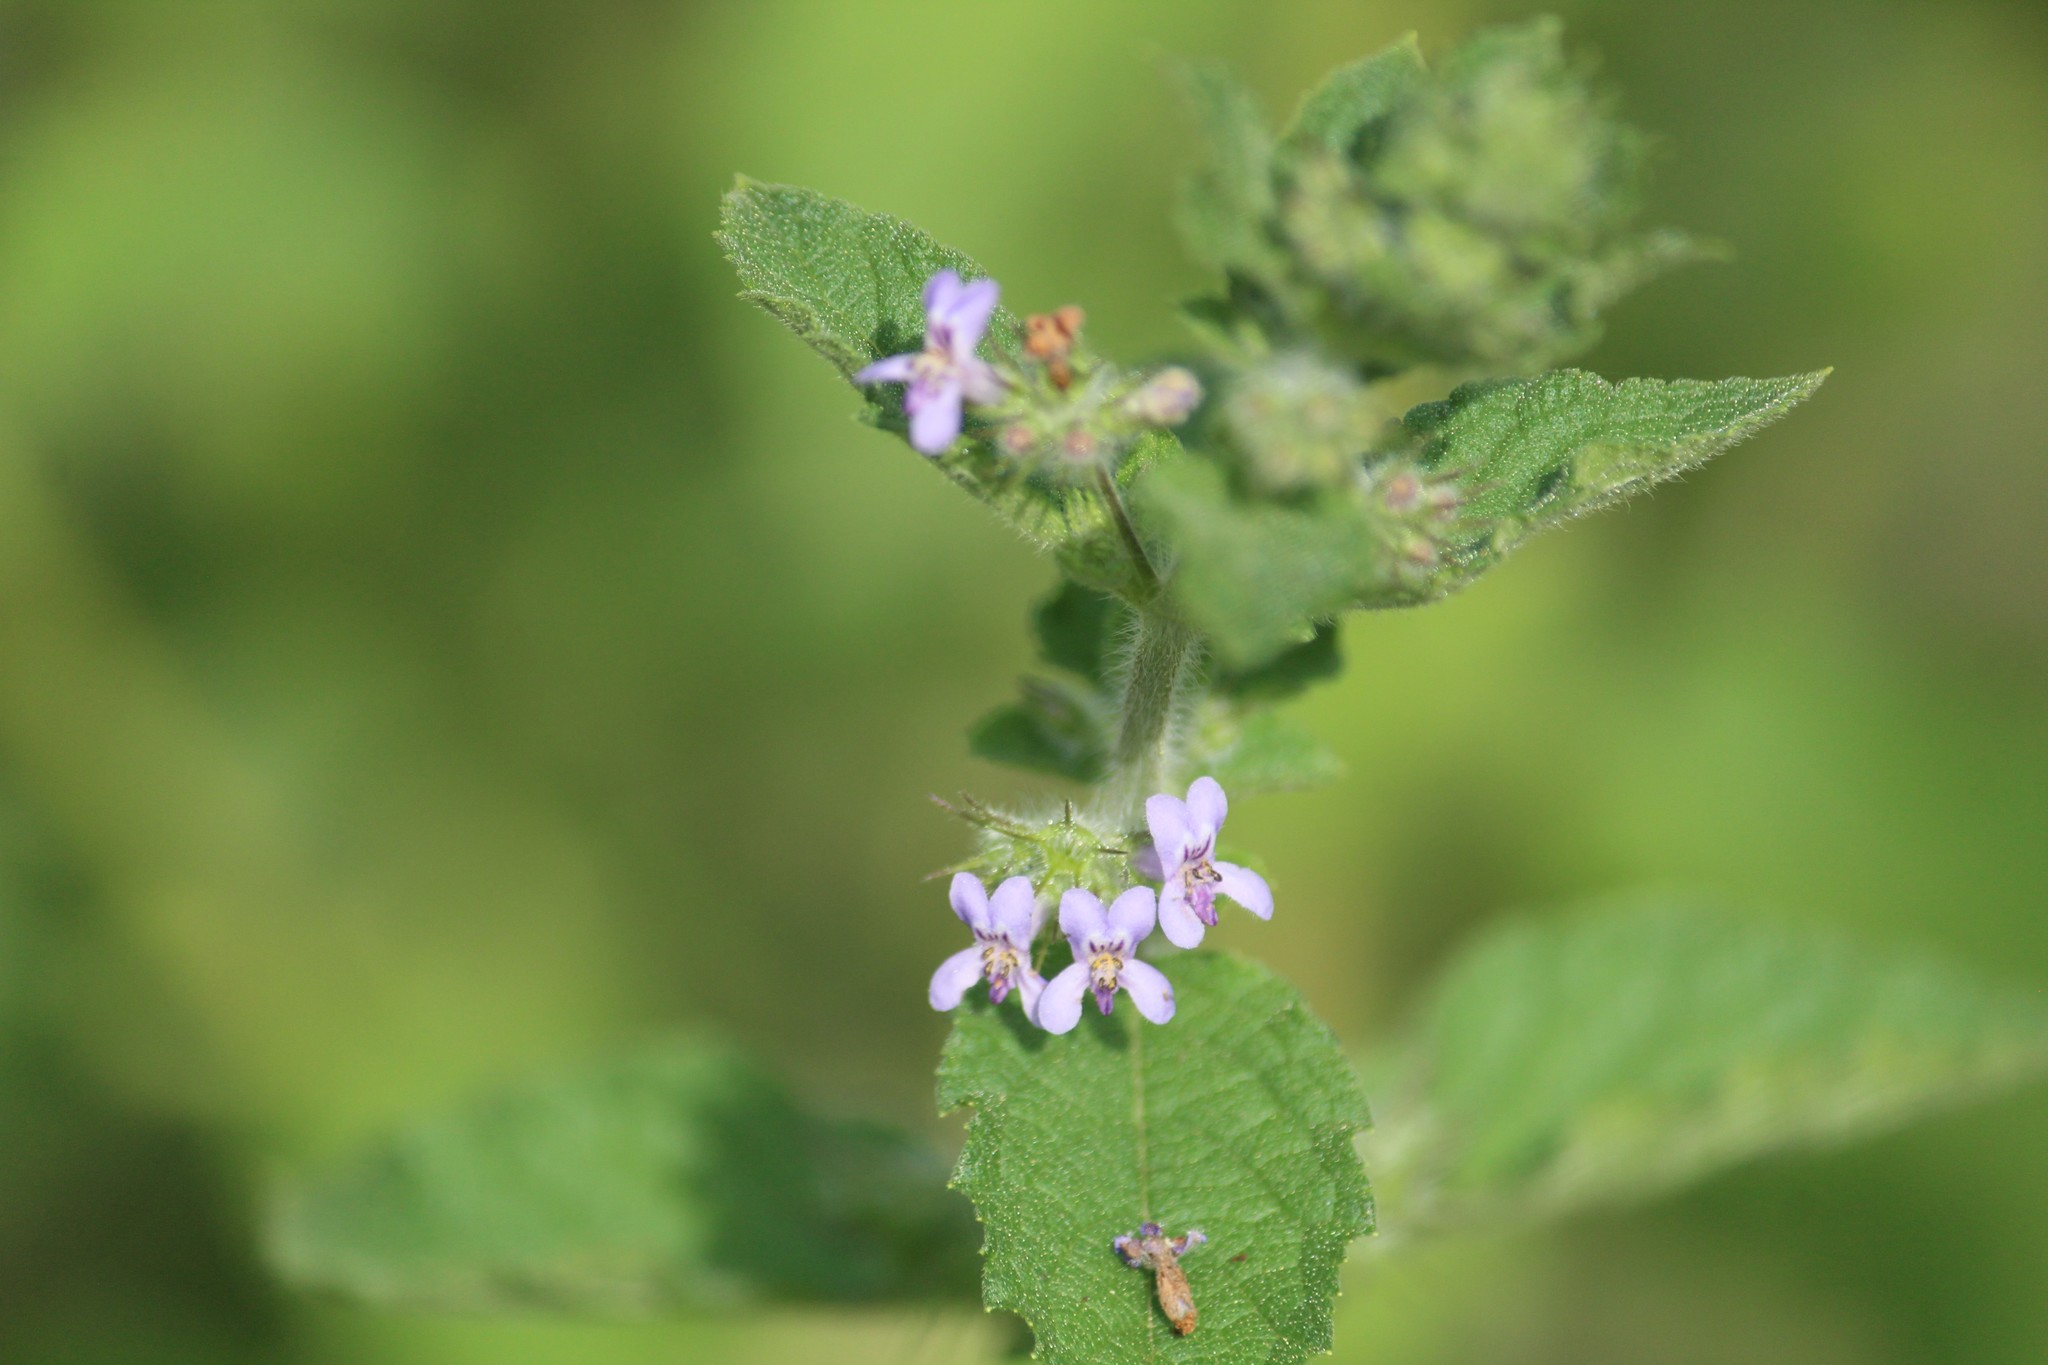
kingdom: Plantae
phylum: Tracheophyta
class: Magnoliopsida
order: Lamiales
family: Lamiaceae
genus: Mesosphaerum
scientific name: Mesosphaerum suaveolens
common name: Pignut
